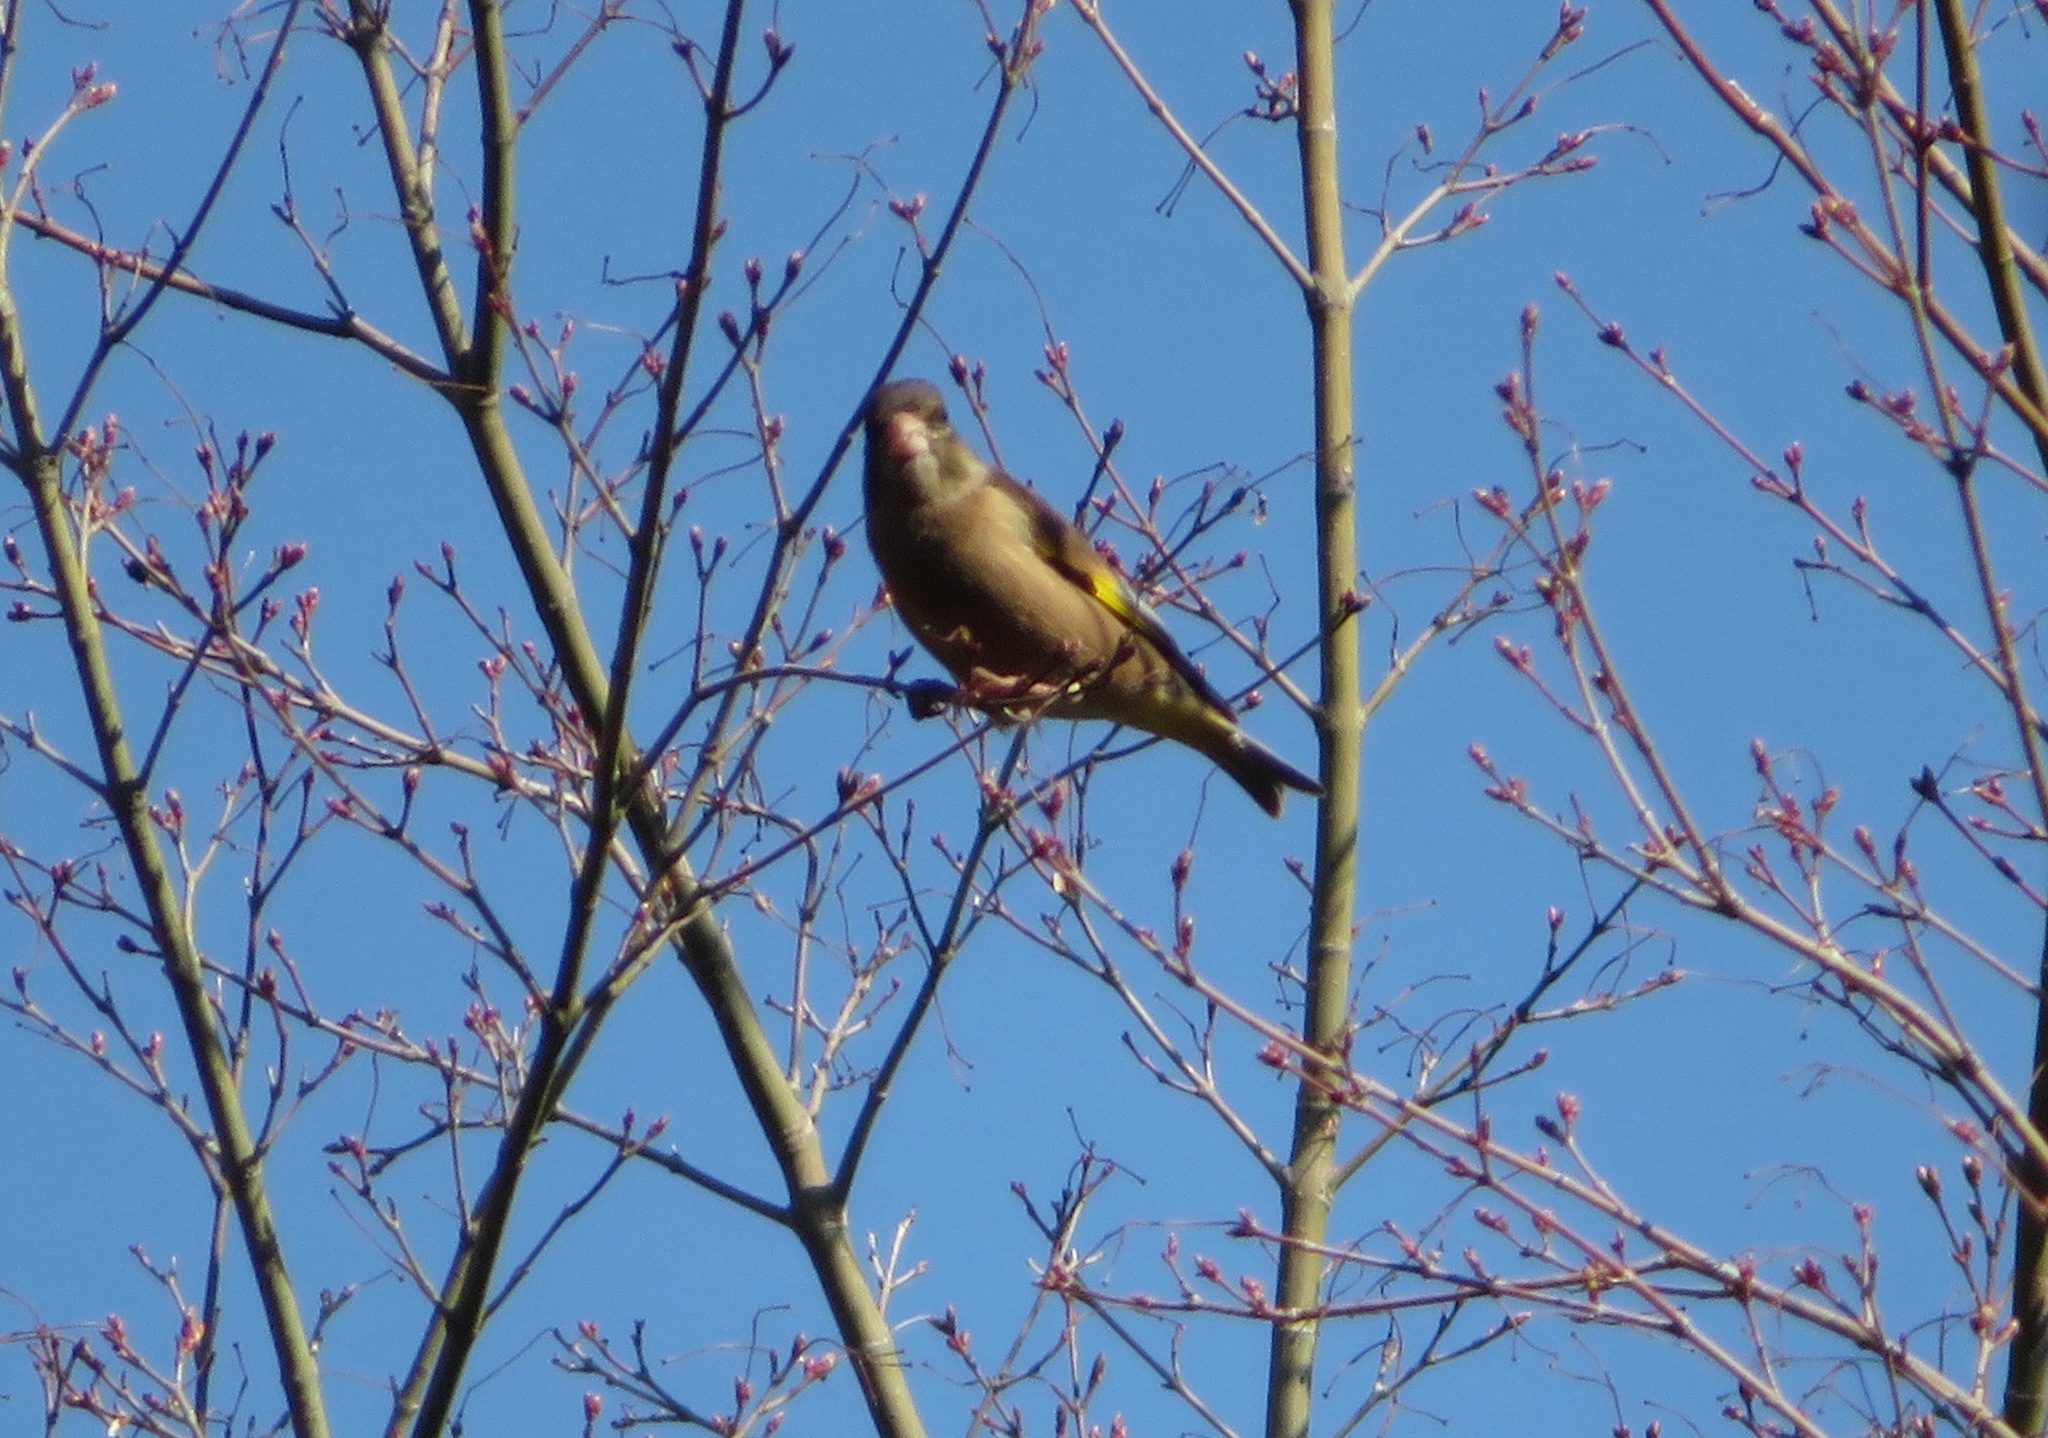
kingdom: Plantae
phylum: Tracheophyta
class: Liliopsida
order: Poales
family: Poaceae
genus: Chloris
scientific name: Chloris sinica
